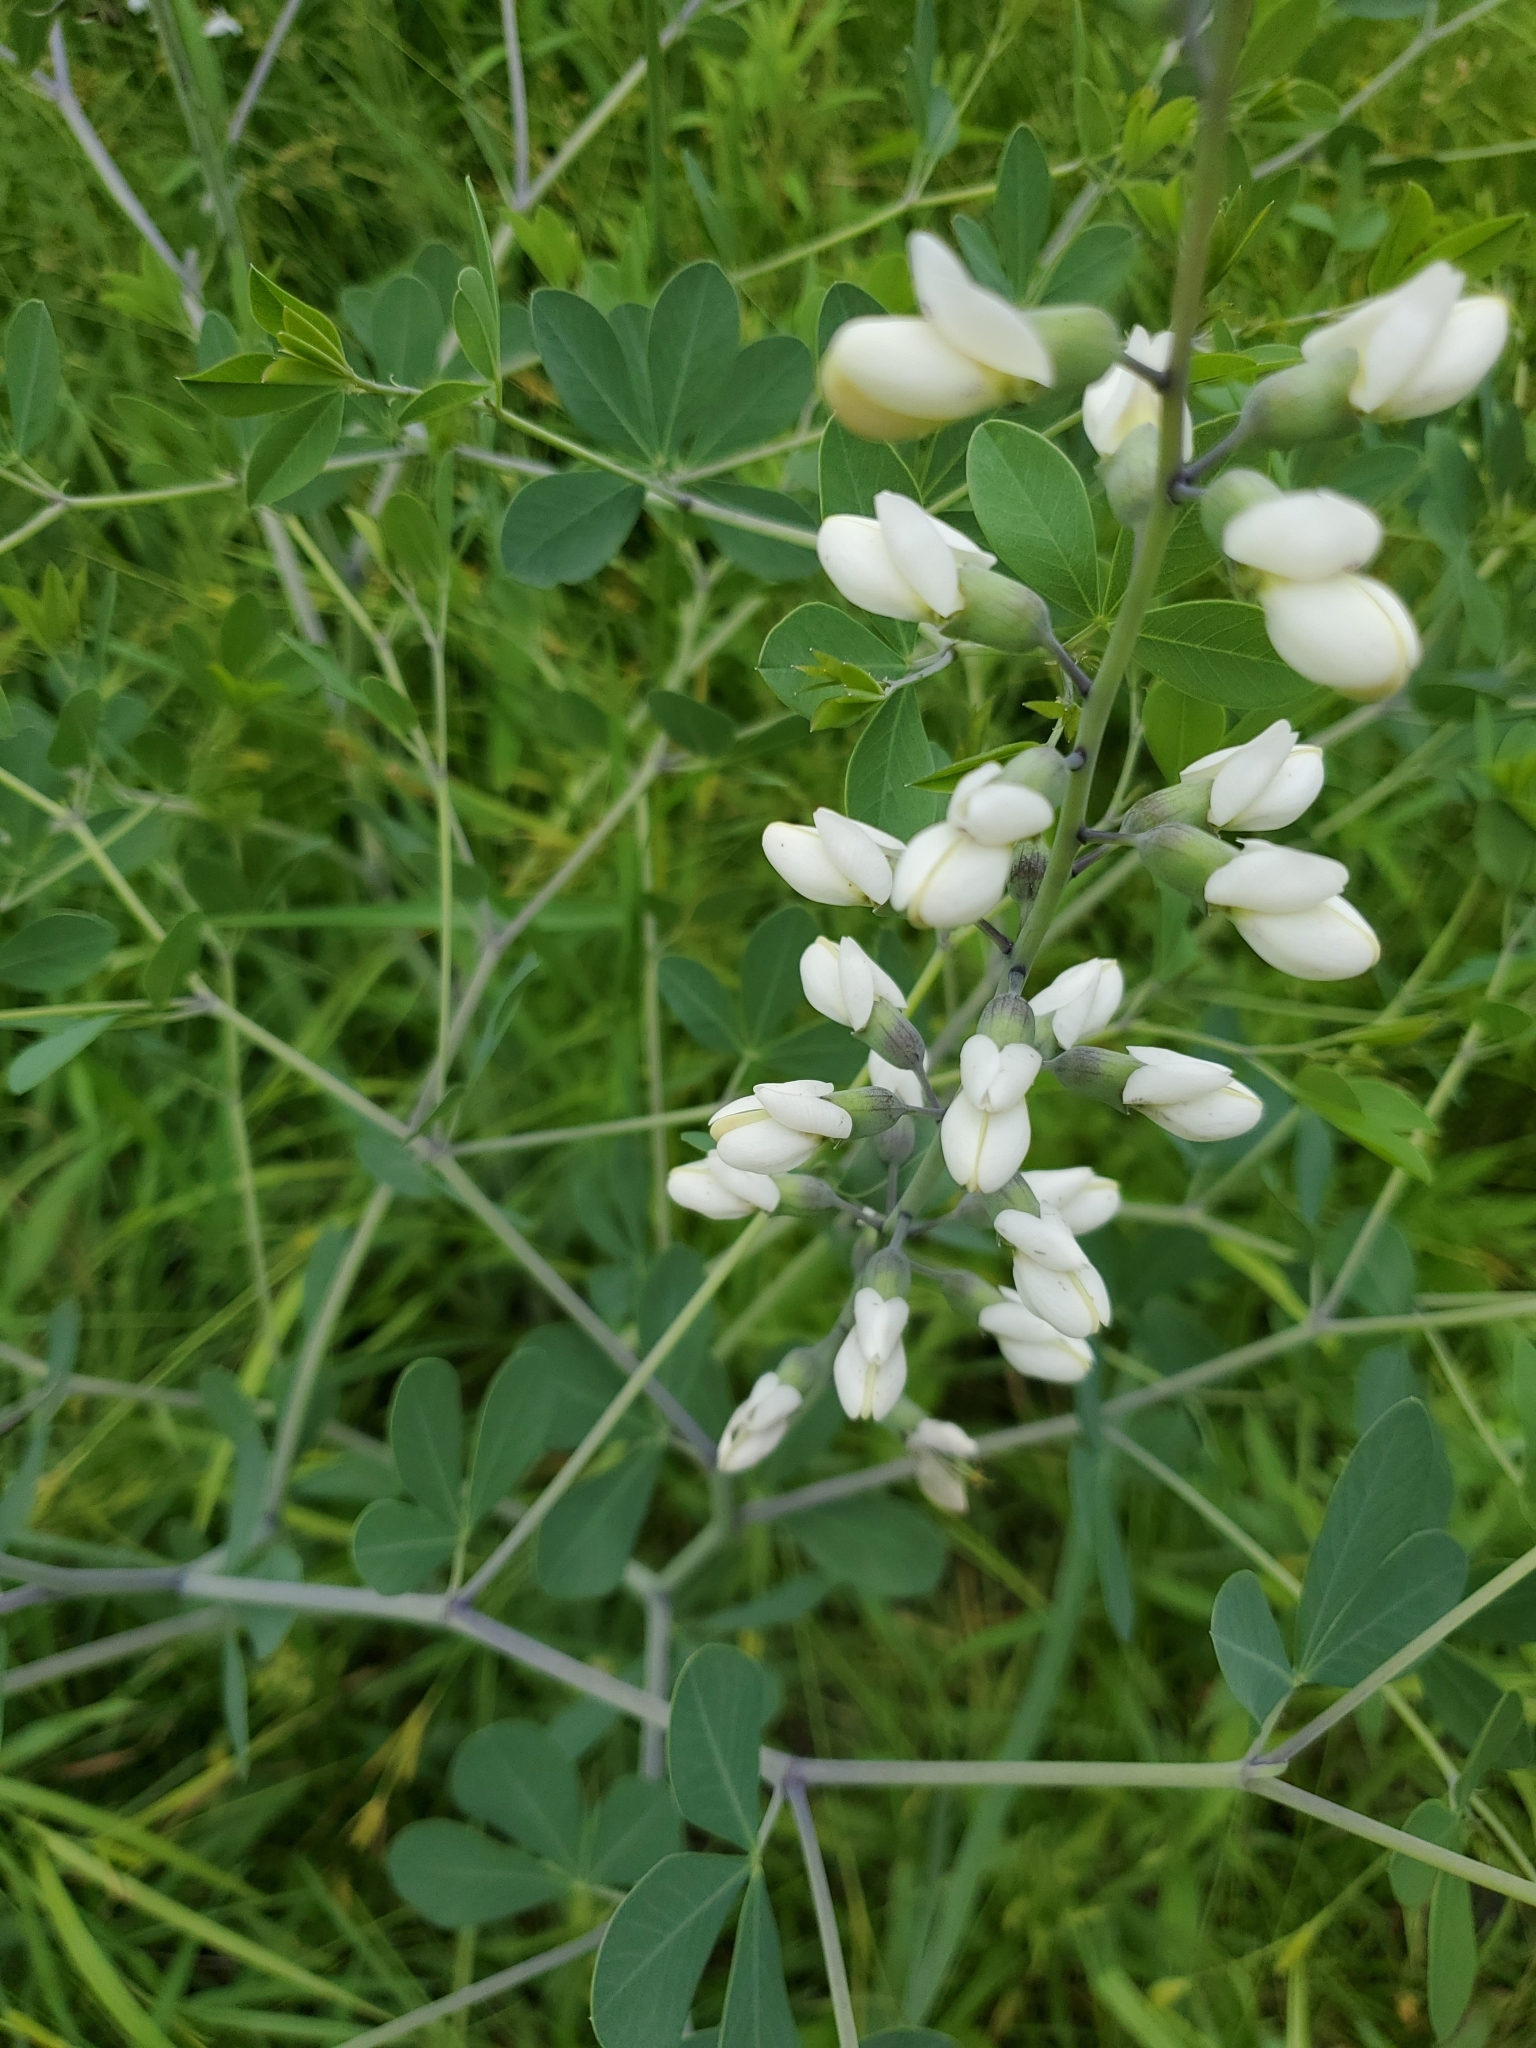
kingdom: Plantae
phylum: Tracheophyta
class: Magnoliopsida
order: Fabales
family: Fabaceae
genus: Baptisia
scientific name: Baptisia alba
